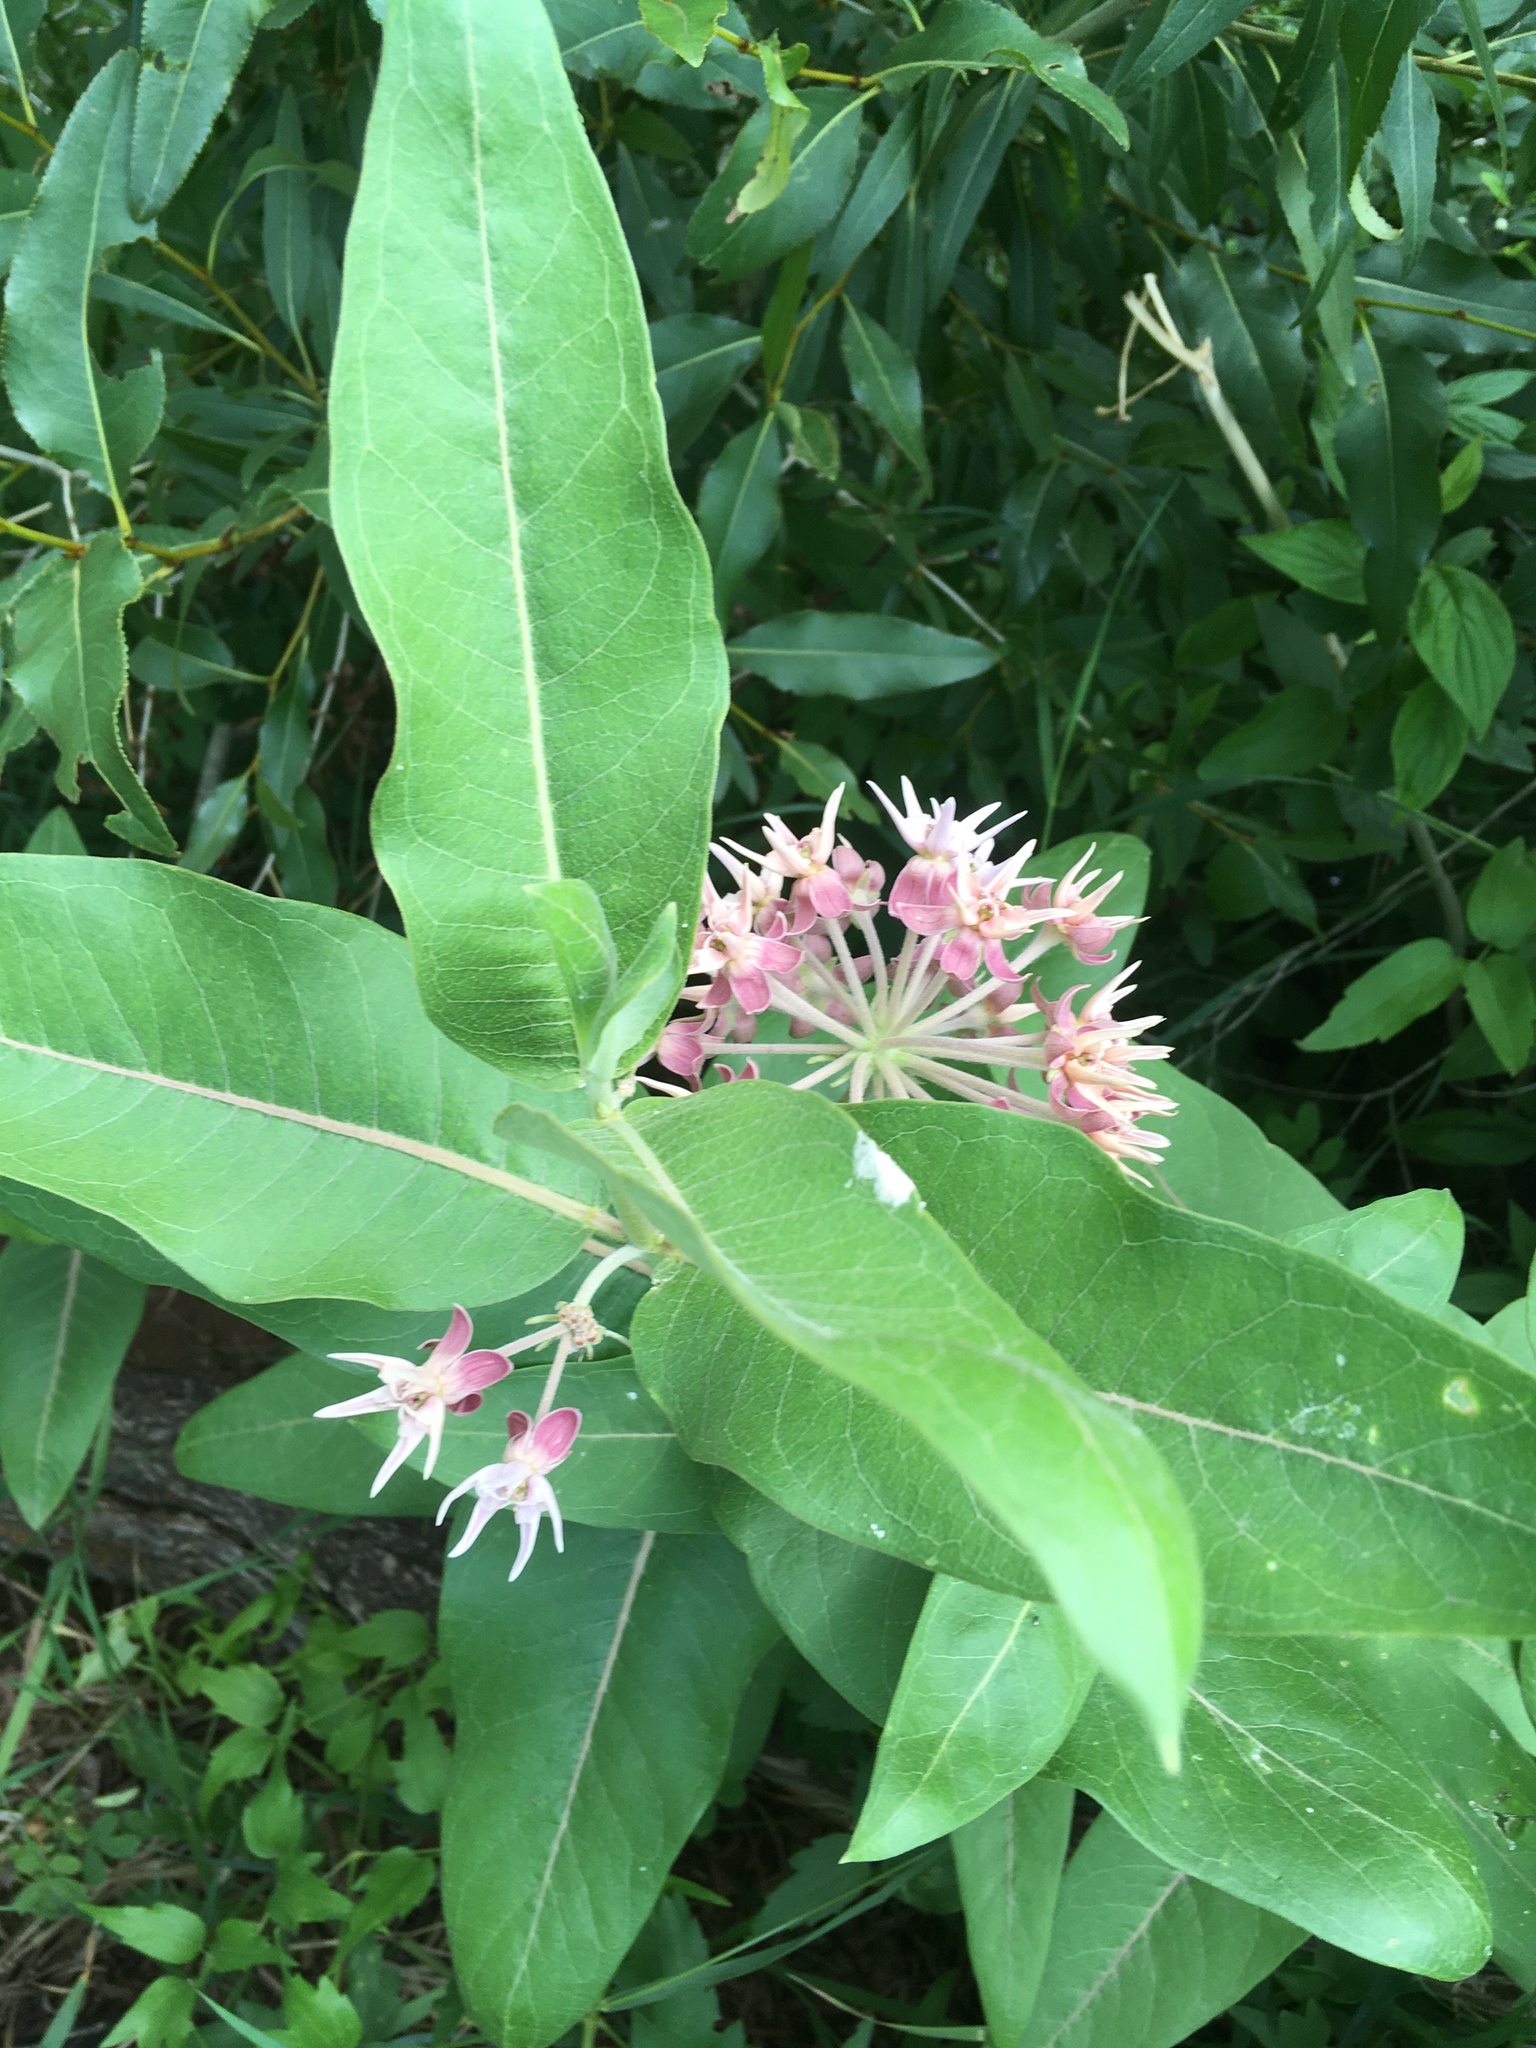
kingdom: Plantae
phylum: Tracheophyta
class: Magnoliopsida
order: Gentianales
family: Apocynaceae
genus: Asclepias
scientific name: Asclepias speciosa
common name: Showy milkweed
